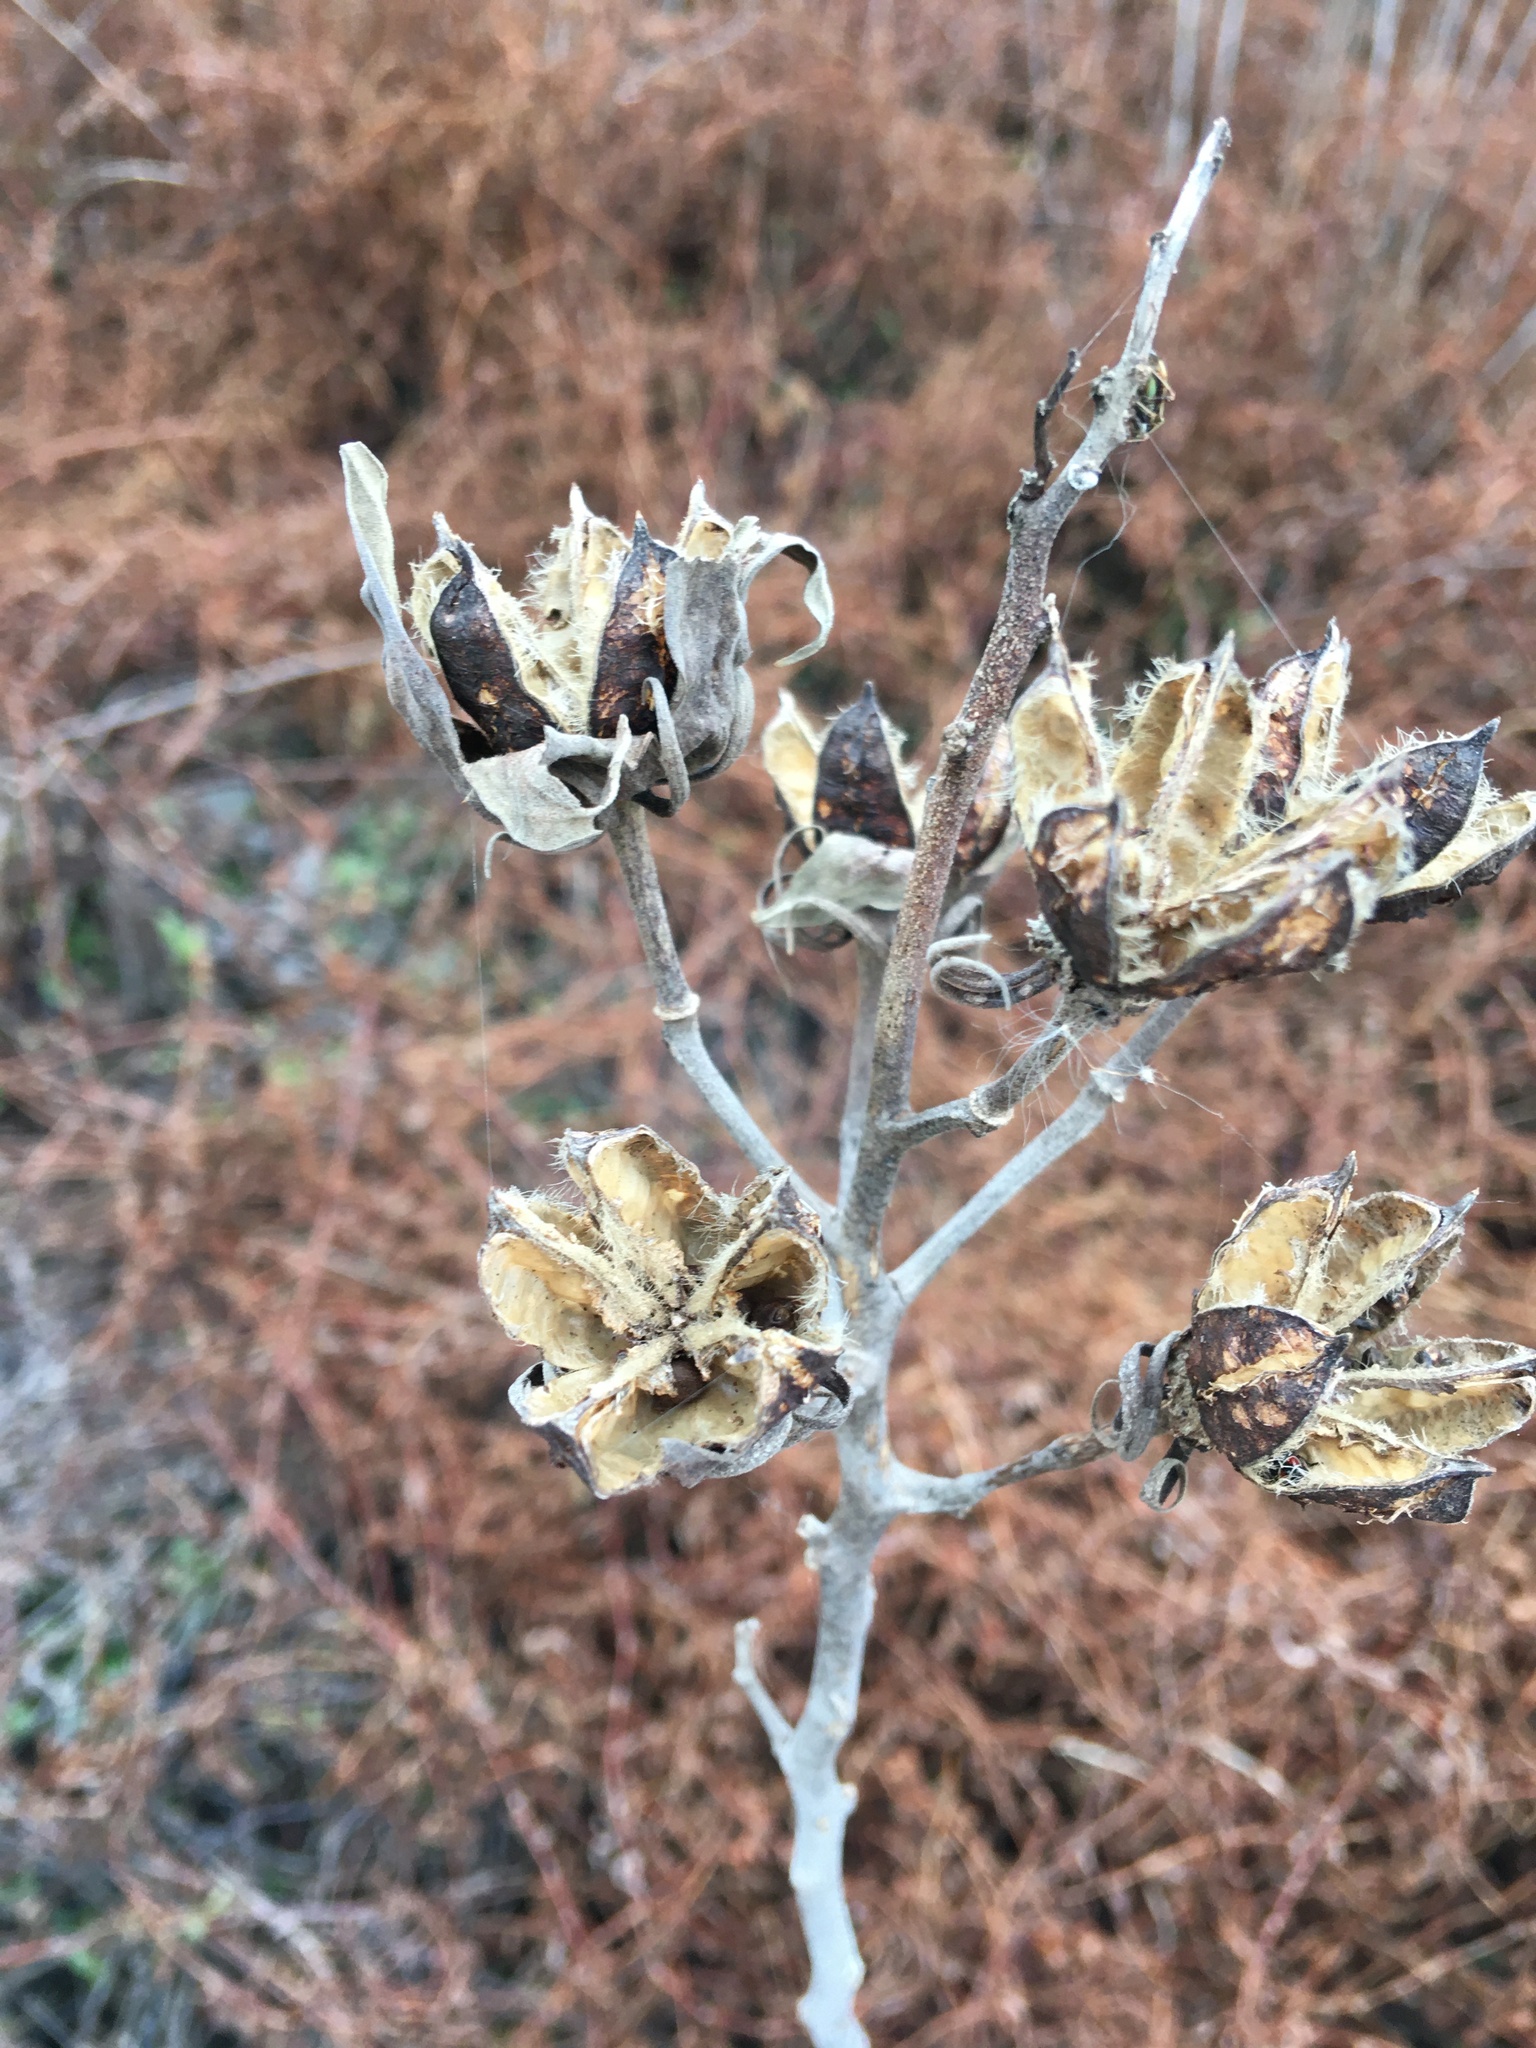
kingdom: Plantae
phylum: Tracheophyta
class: Magnoliopsida
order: Malvales
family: Malvaceae
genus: Hibiscus
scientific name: Hibiscus moscheutos
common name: Common rose-mallow
